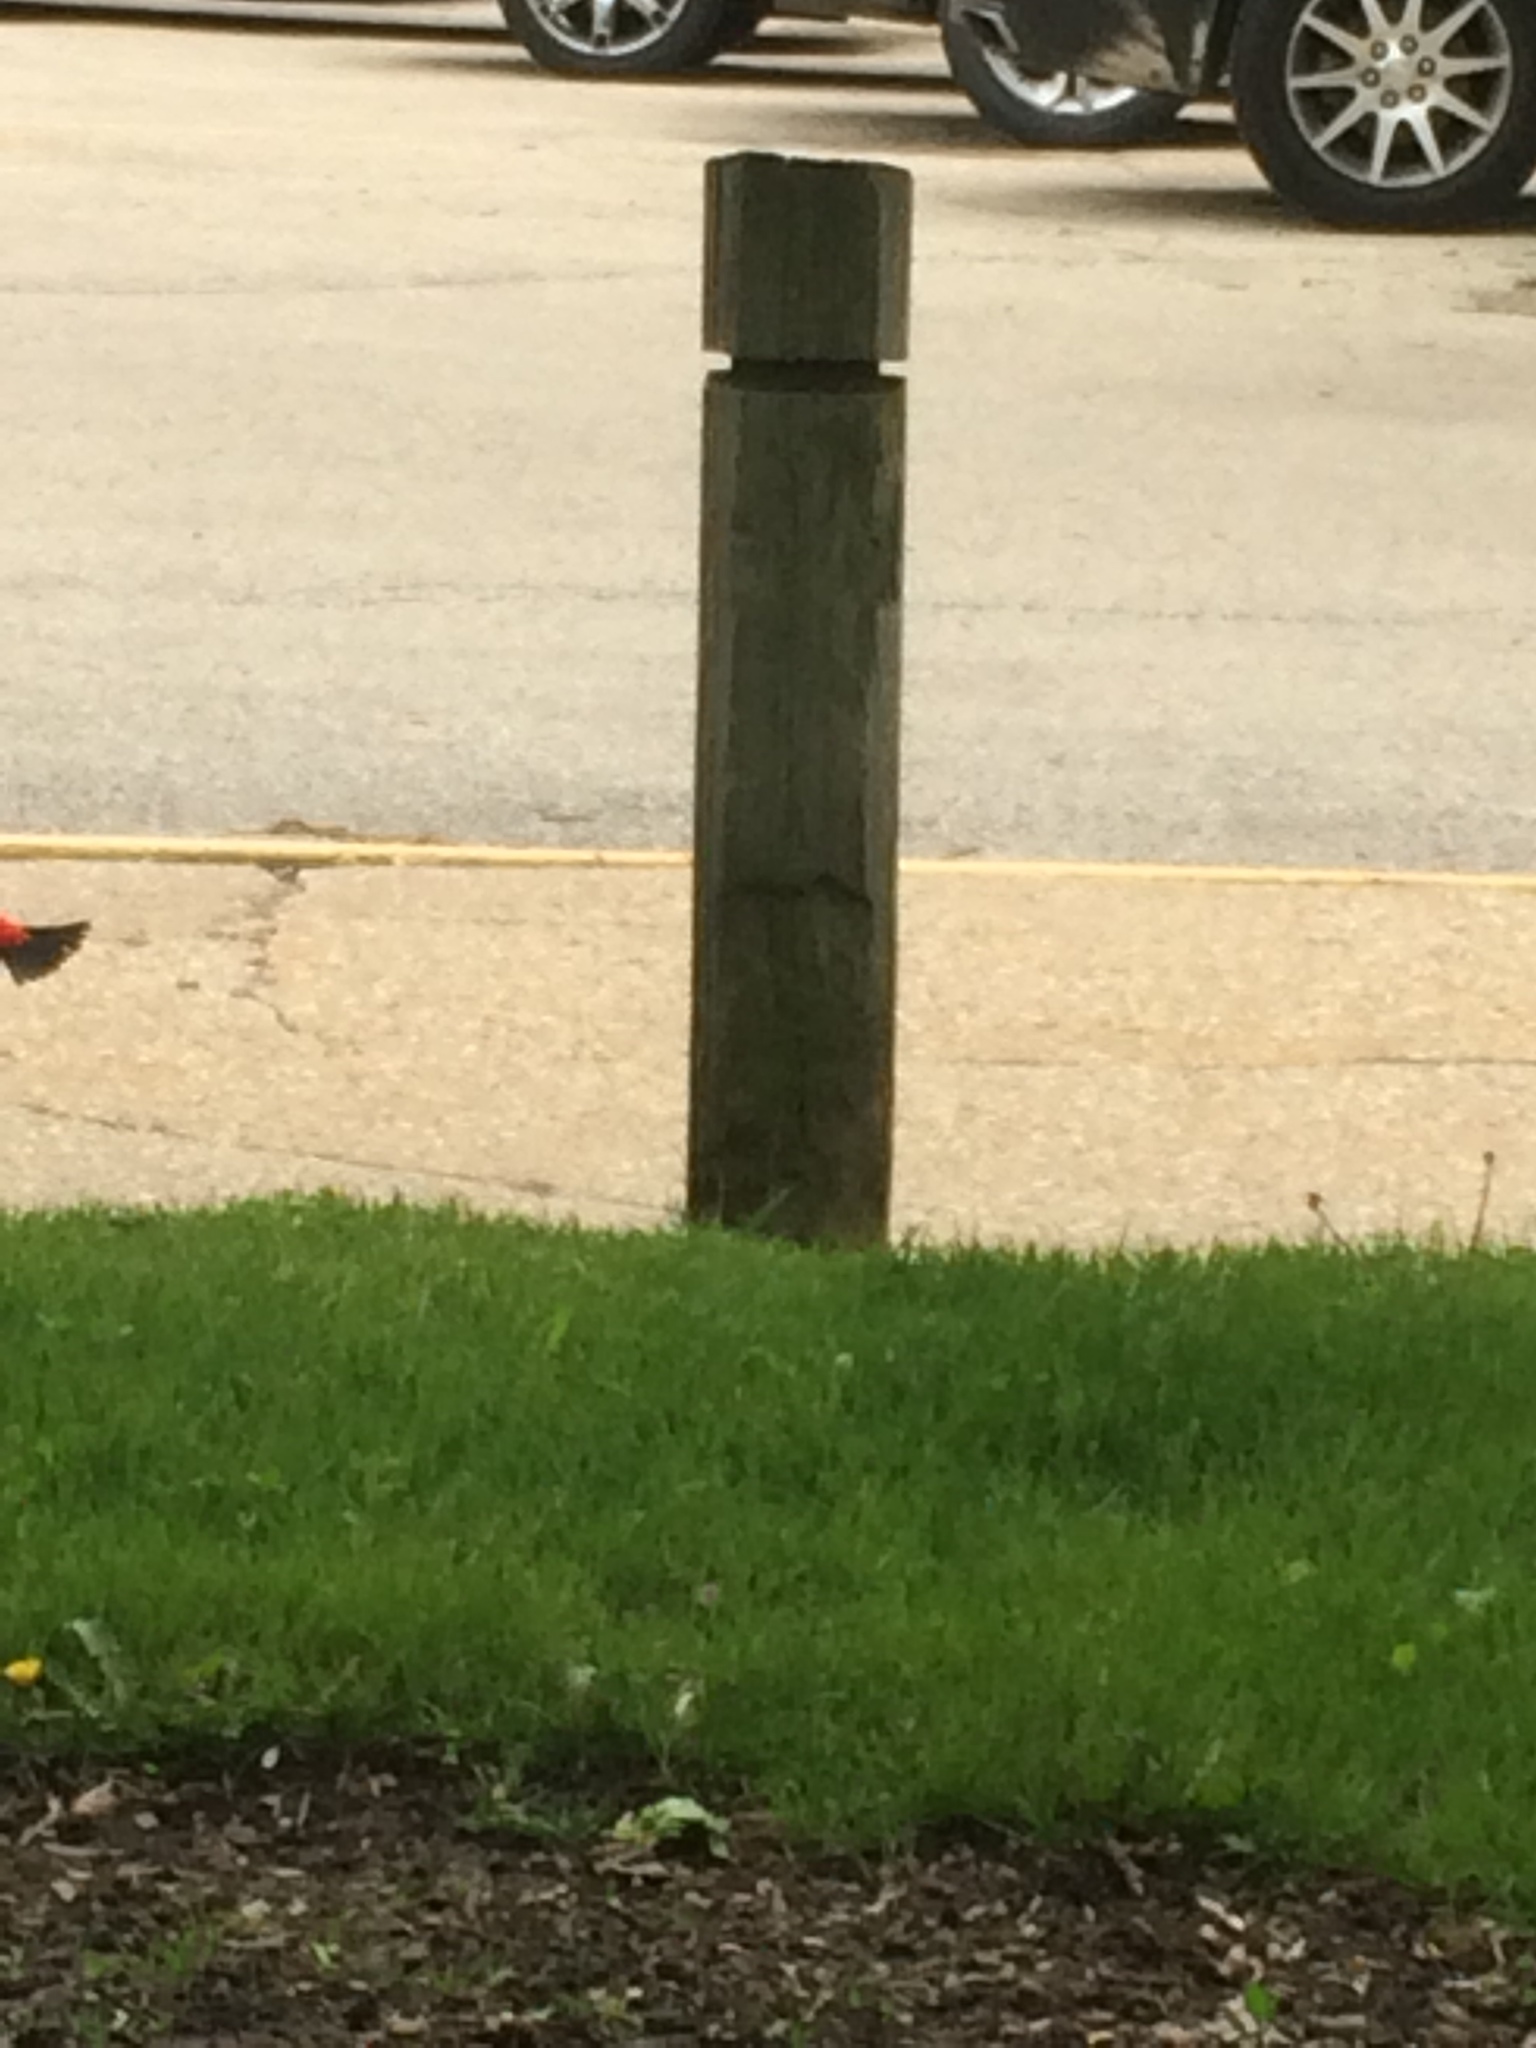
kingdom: Animalia
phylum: Chordata
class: Aves
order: Passeriformes
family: Cardinalidae
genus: Piranga
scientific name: Piranga olivacea
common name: Scarlet tanager
